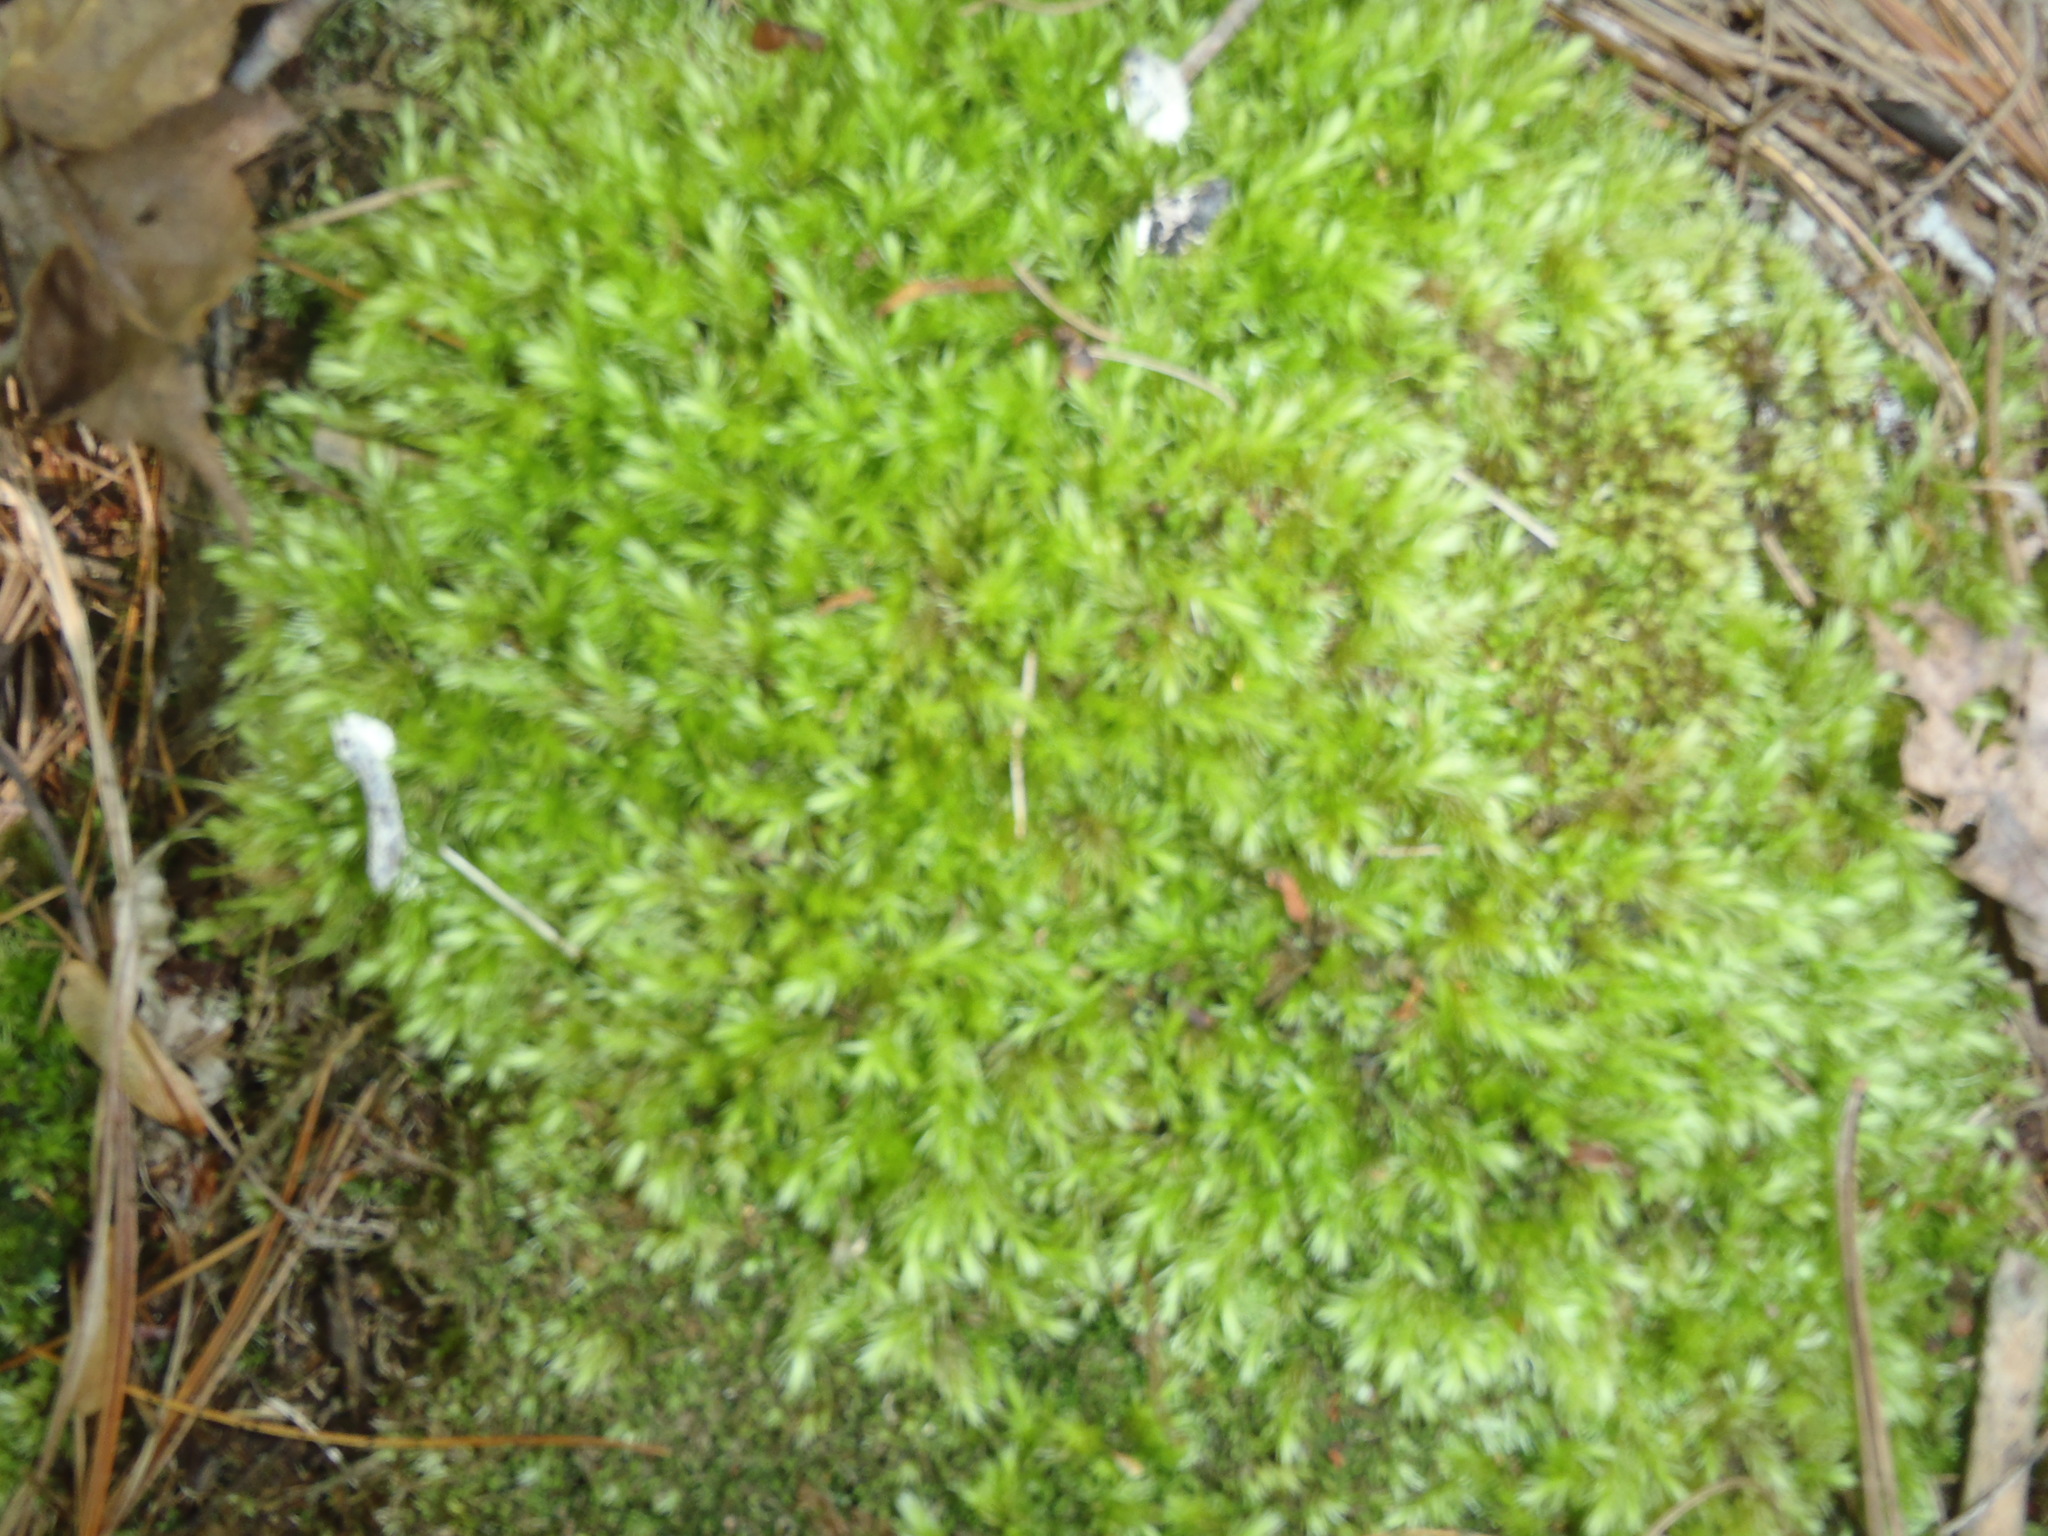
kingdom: Plantae
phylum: Bryophyta
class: Bryopsida
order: Bryales
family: Mniaceae
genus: Mnium
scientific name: Mnium hornum
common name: Swan's-neck leafy moss
